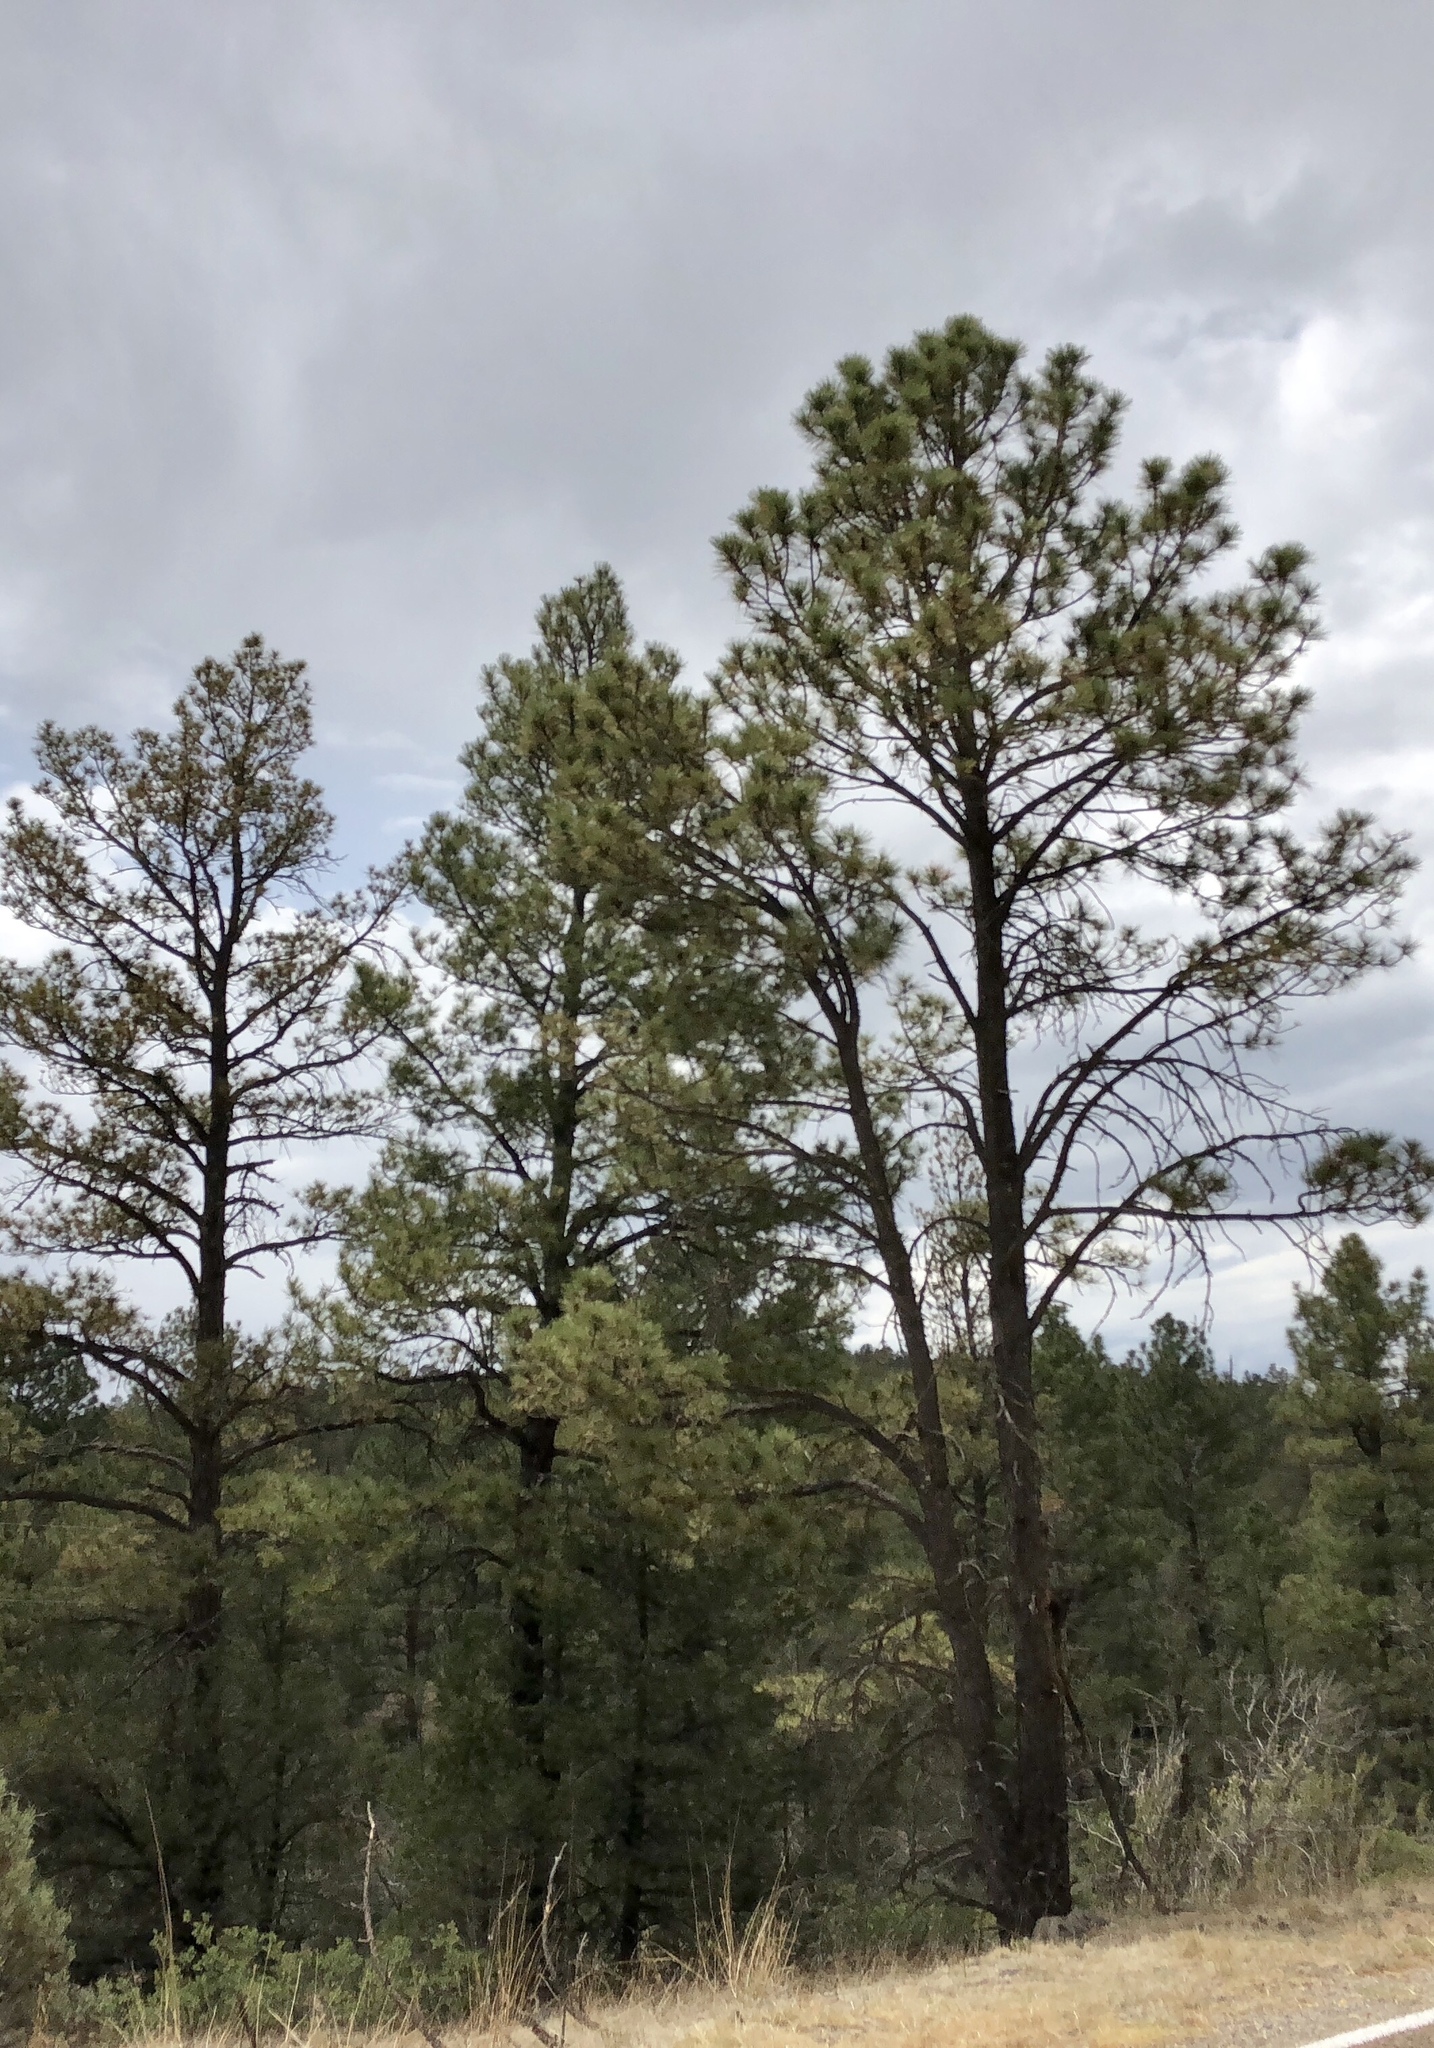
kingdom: Plantae
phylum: Tracheophyta
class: Pinopsida
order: Pinales
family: Pinaceae
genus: Pinus
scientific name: Pinus ponderosa
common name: Western yellow-pine
